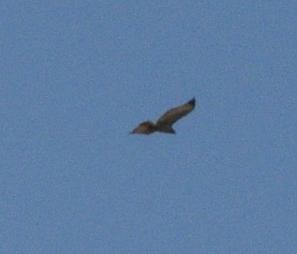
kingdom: Animalia
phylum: Chordata
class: Aves
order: Accipitriformes
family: Accipitridae
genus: Buteo
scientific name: Buteo jamaicensis
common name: Red-tailed hawk
